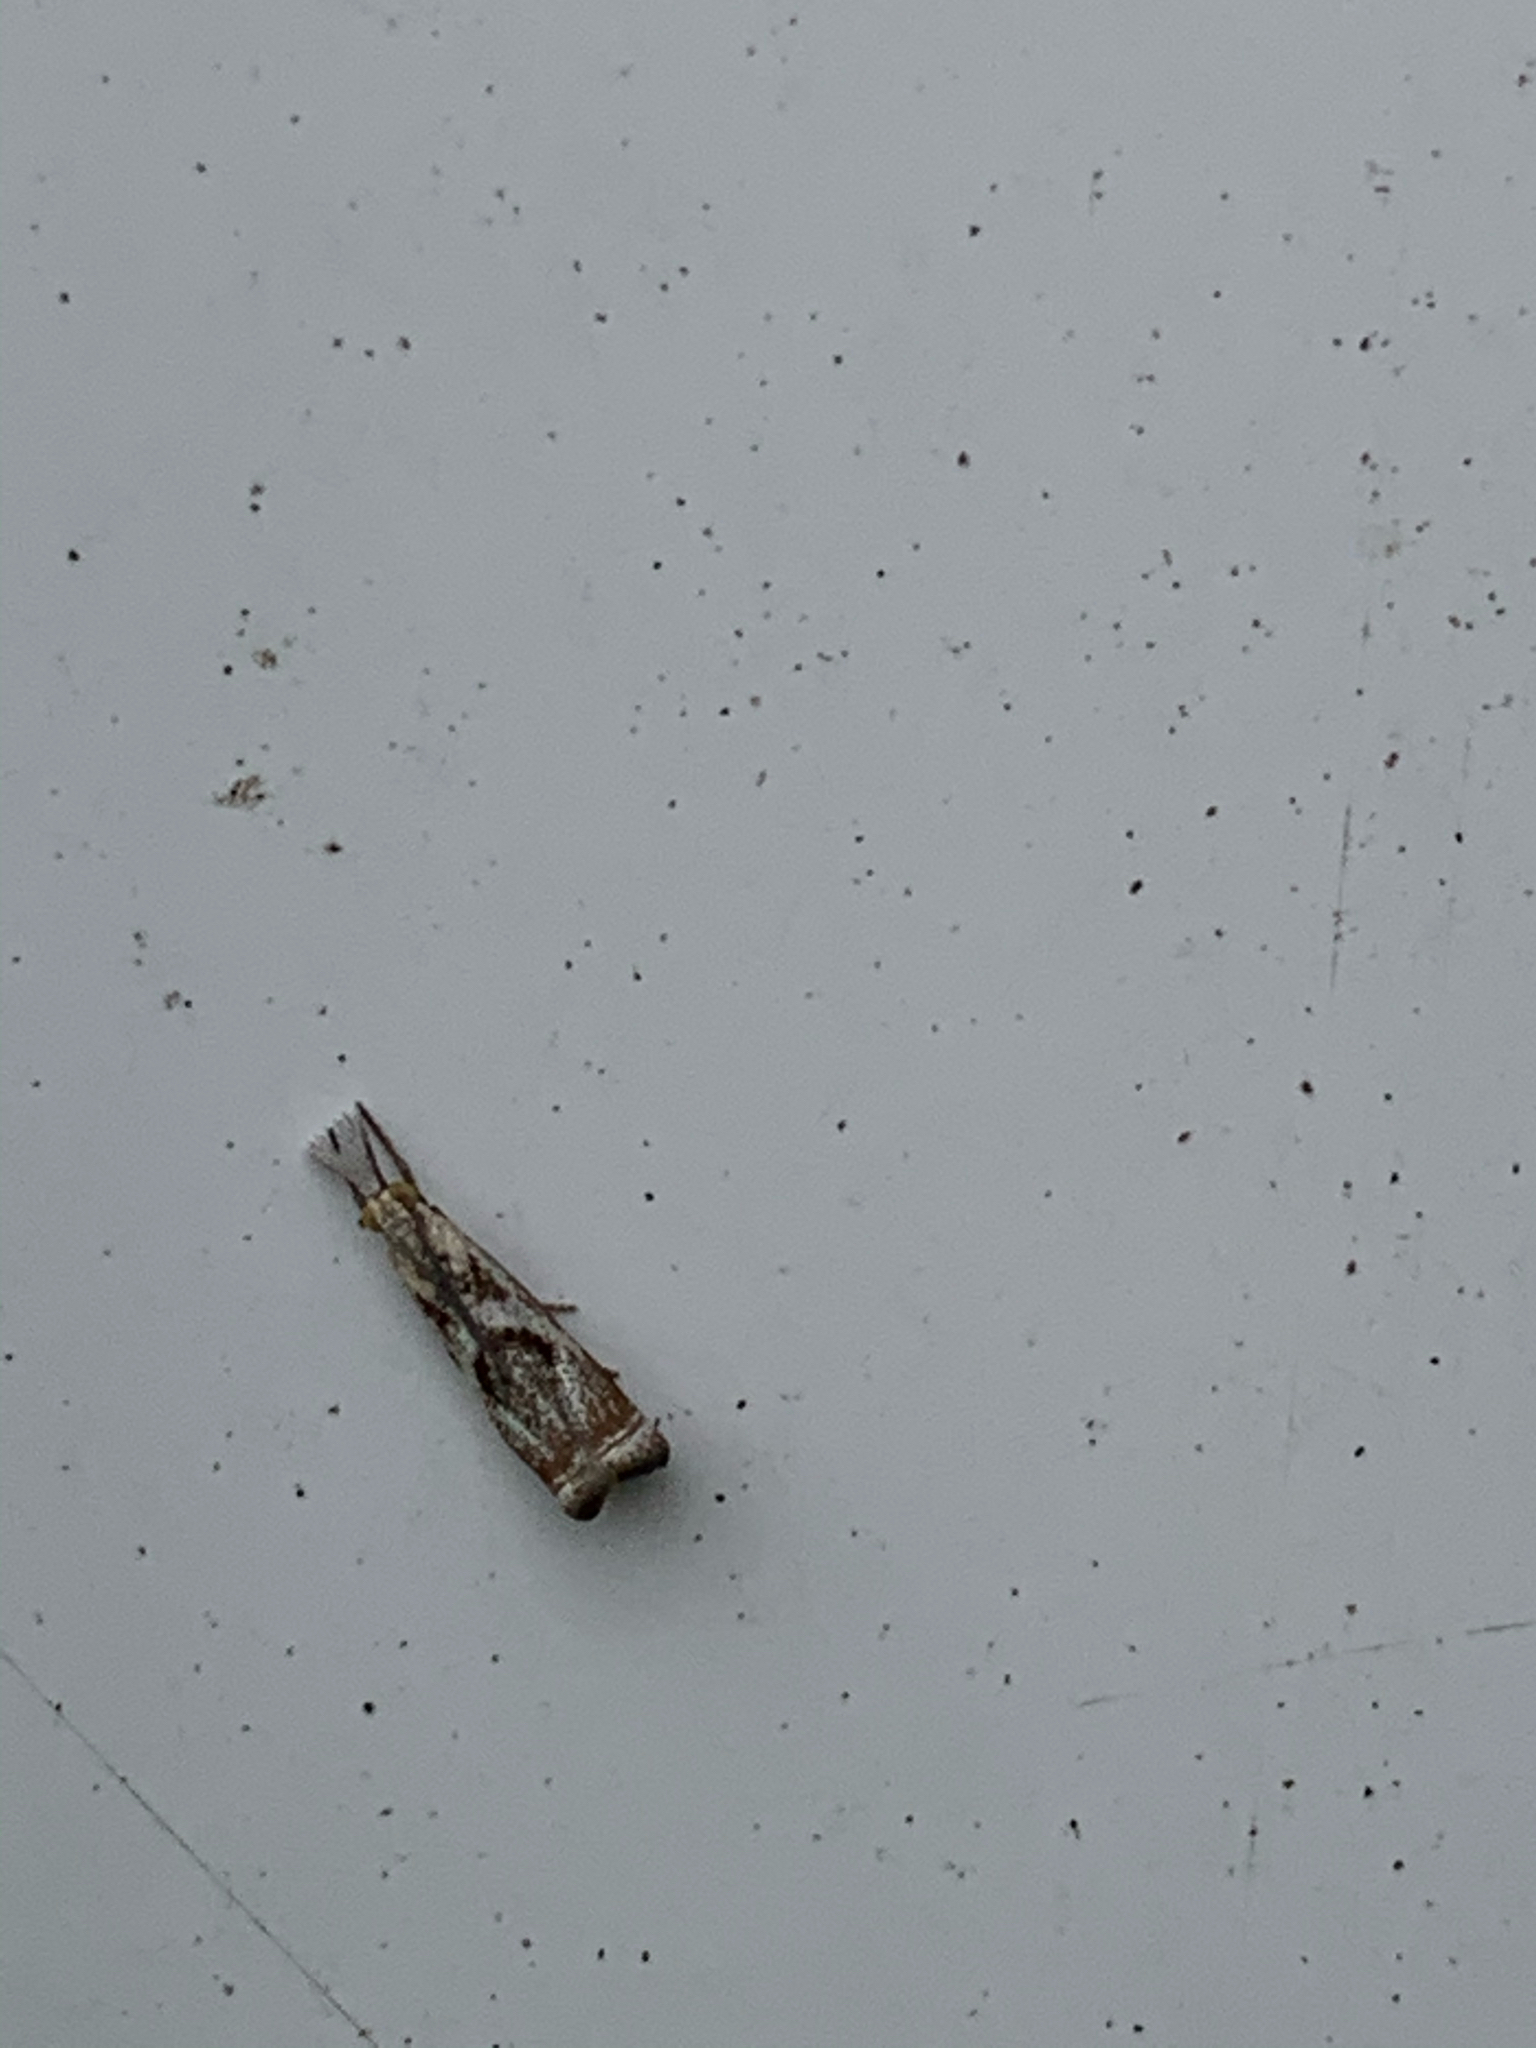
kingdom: Animalia
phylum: Arthropoda
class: Insecta
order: Lepidoptera
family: Crambidae
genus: Microcrambus
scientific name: Microcrambus elegans
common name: Elegant grass-veneer
